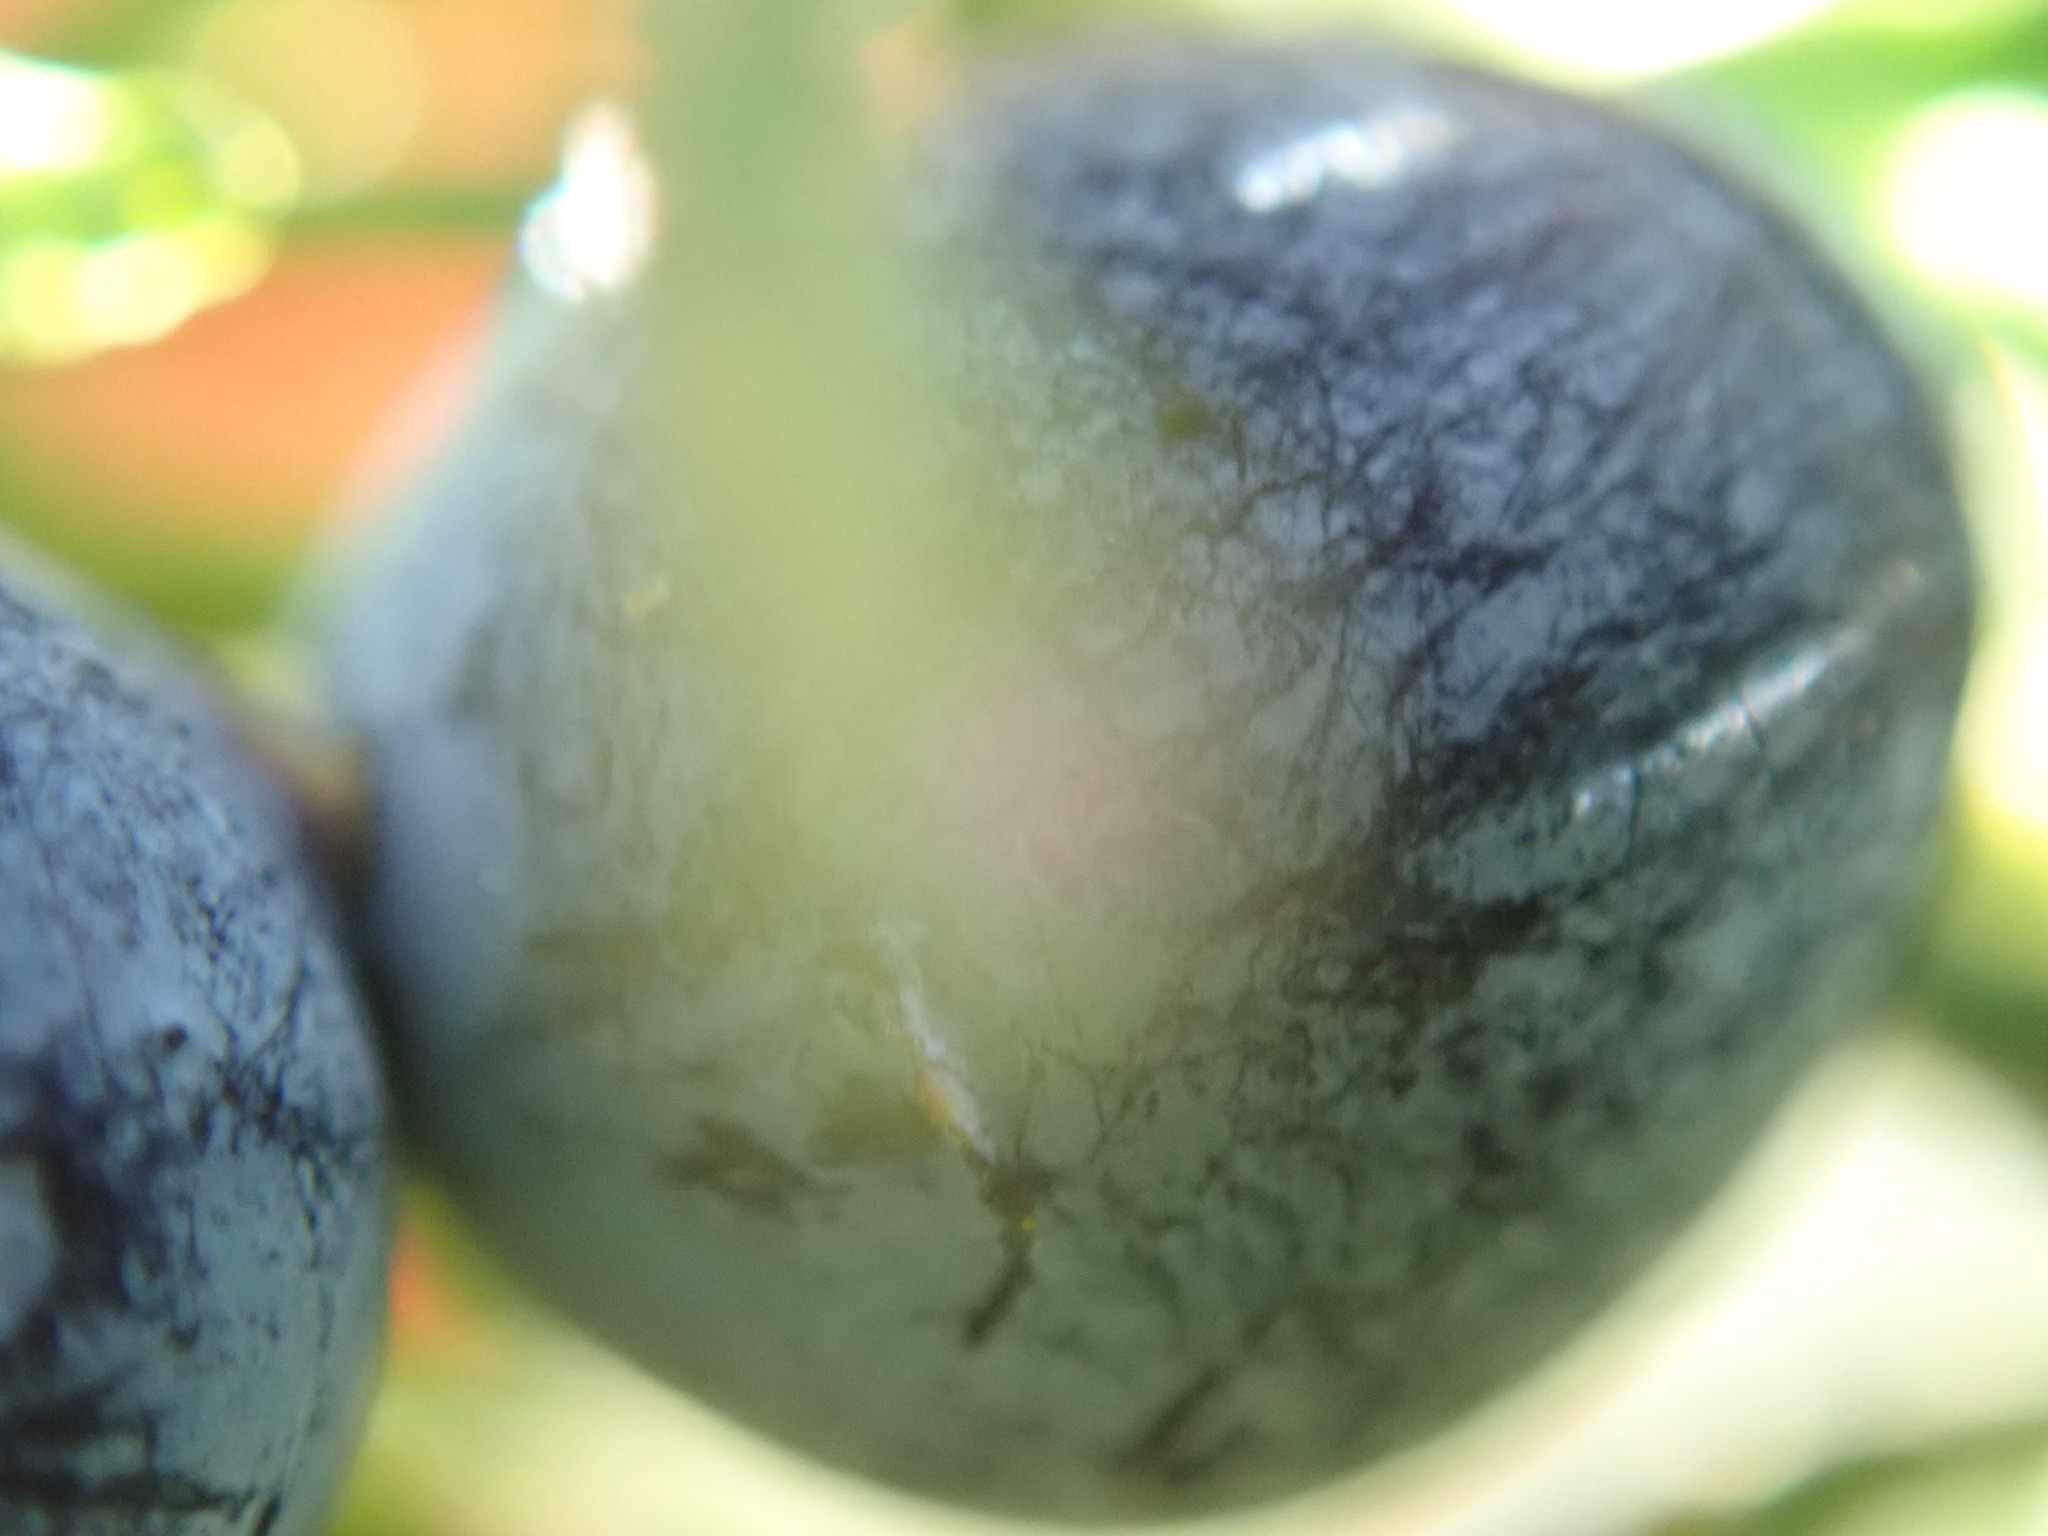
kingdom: Plantae
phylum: Tracheophyta
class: Pinopsida
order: Pinales
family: Cupressaceae
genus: Juniperus
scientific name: Juniperus scopulorum
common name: Rocky mountain juniper
